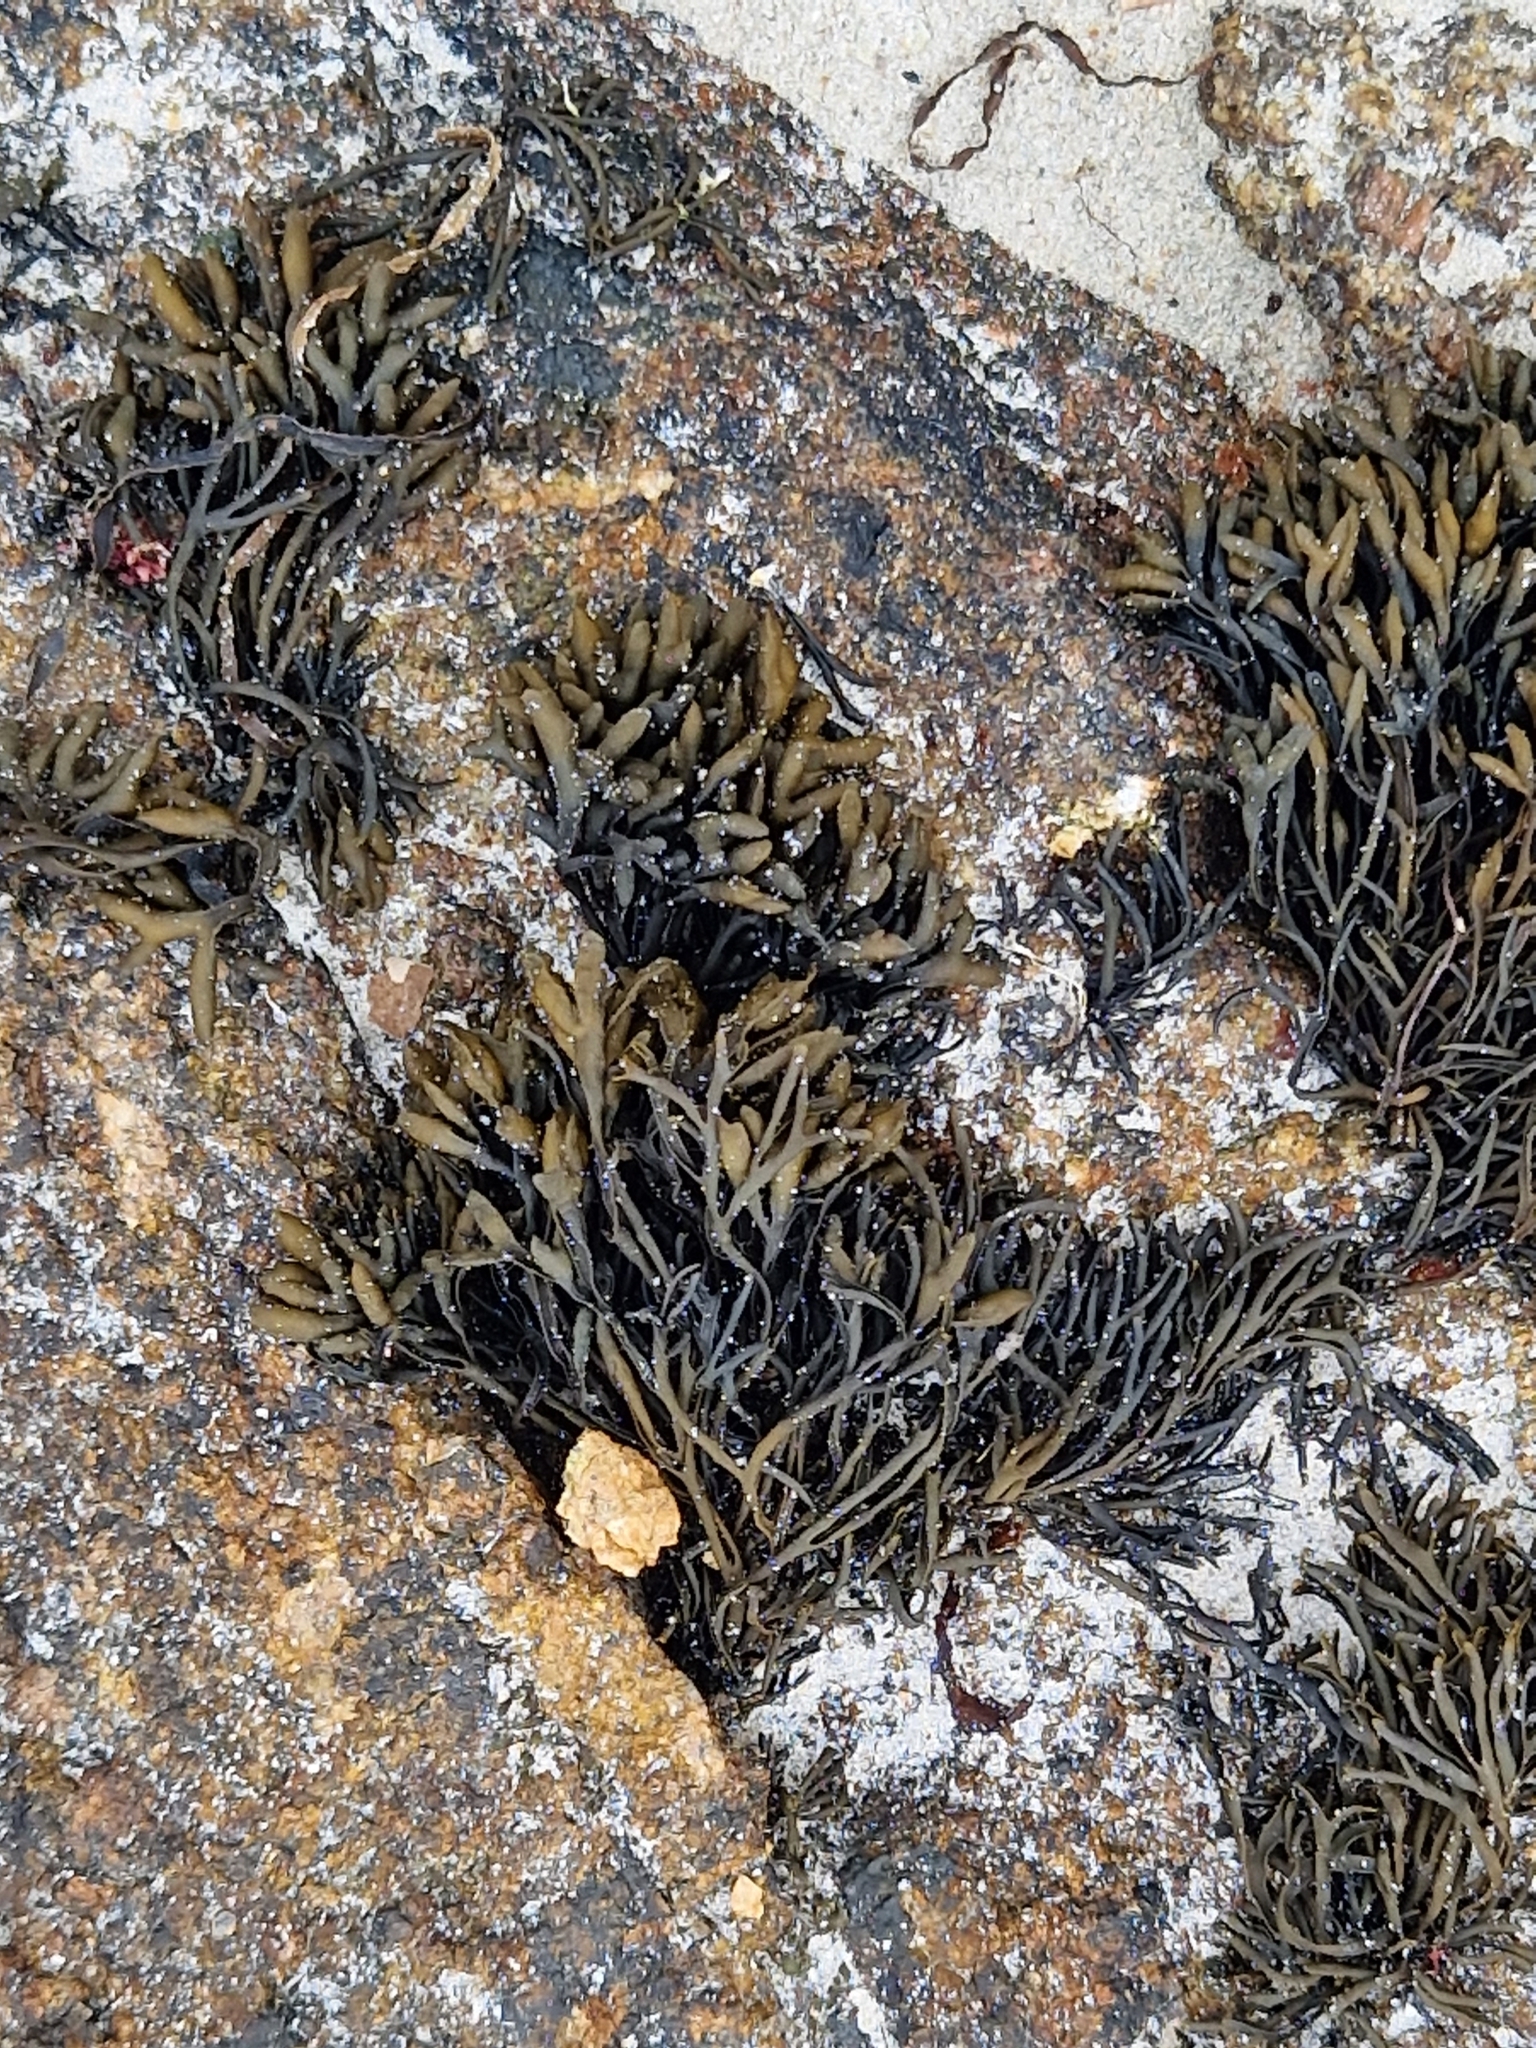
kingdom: Chromista
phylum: Ochrophyta
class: Phaeophyceae
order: Fucales
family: Fucaceae
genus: Pelvetia
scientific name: Pelvetia canaliculata
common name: Channelled wrack
